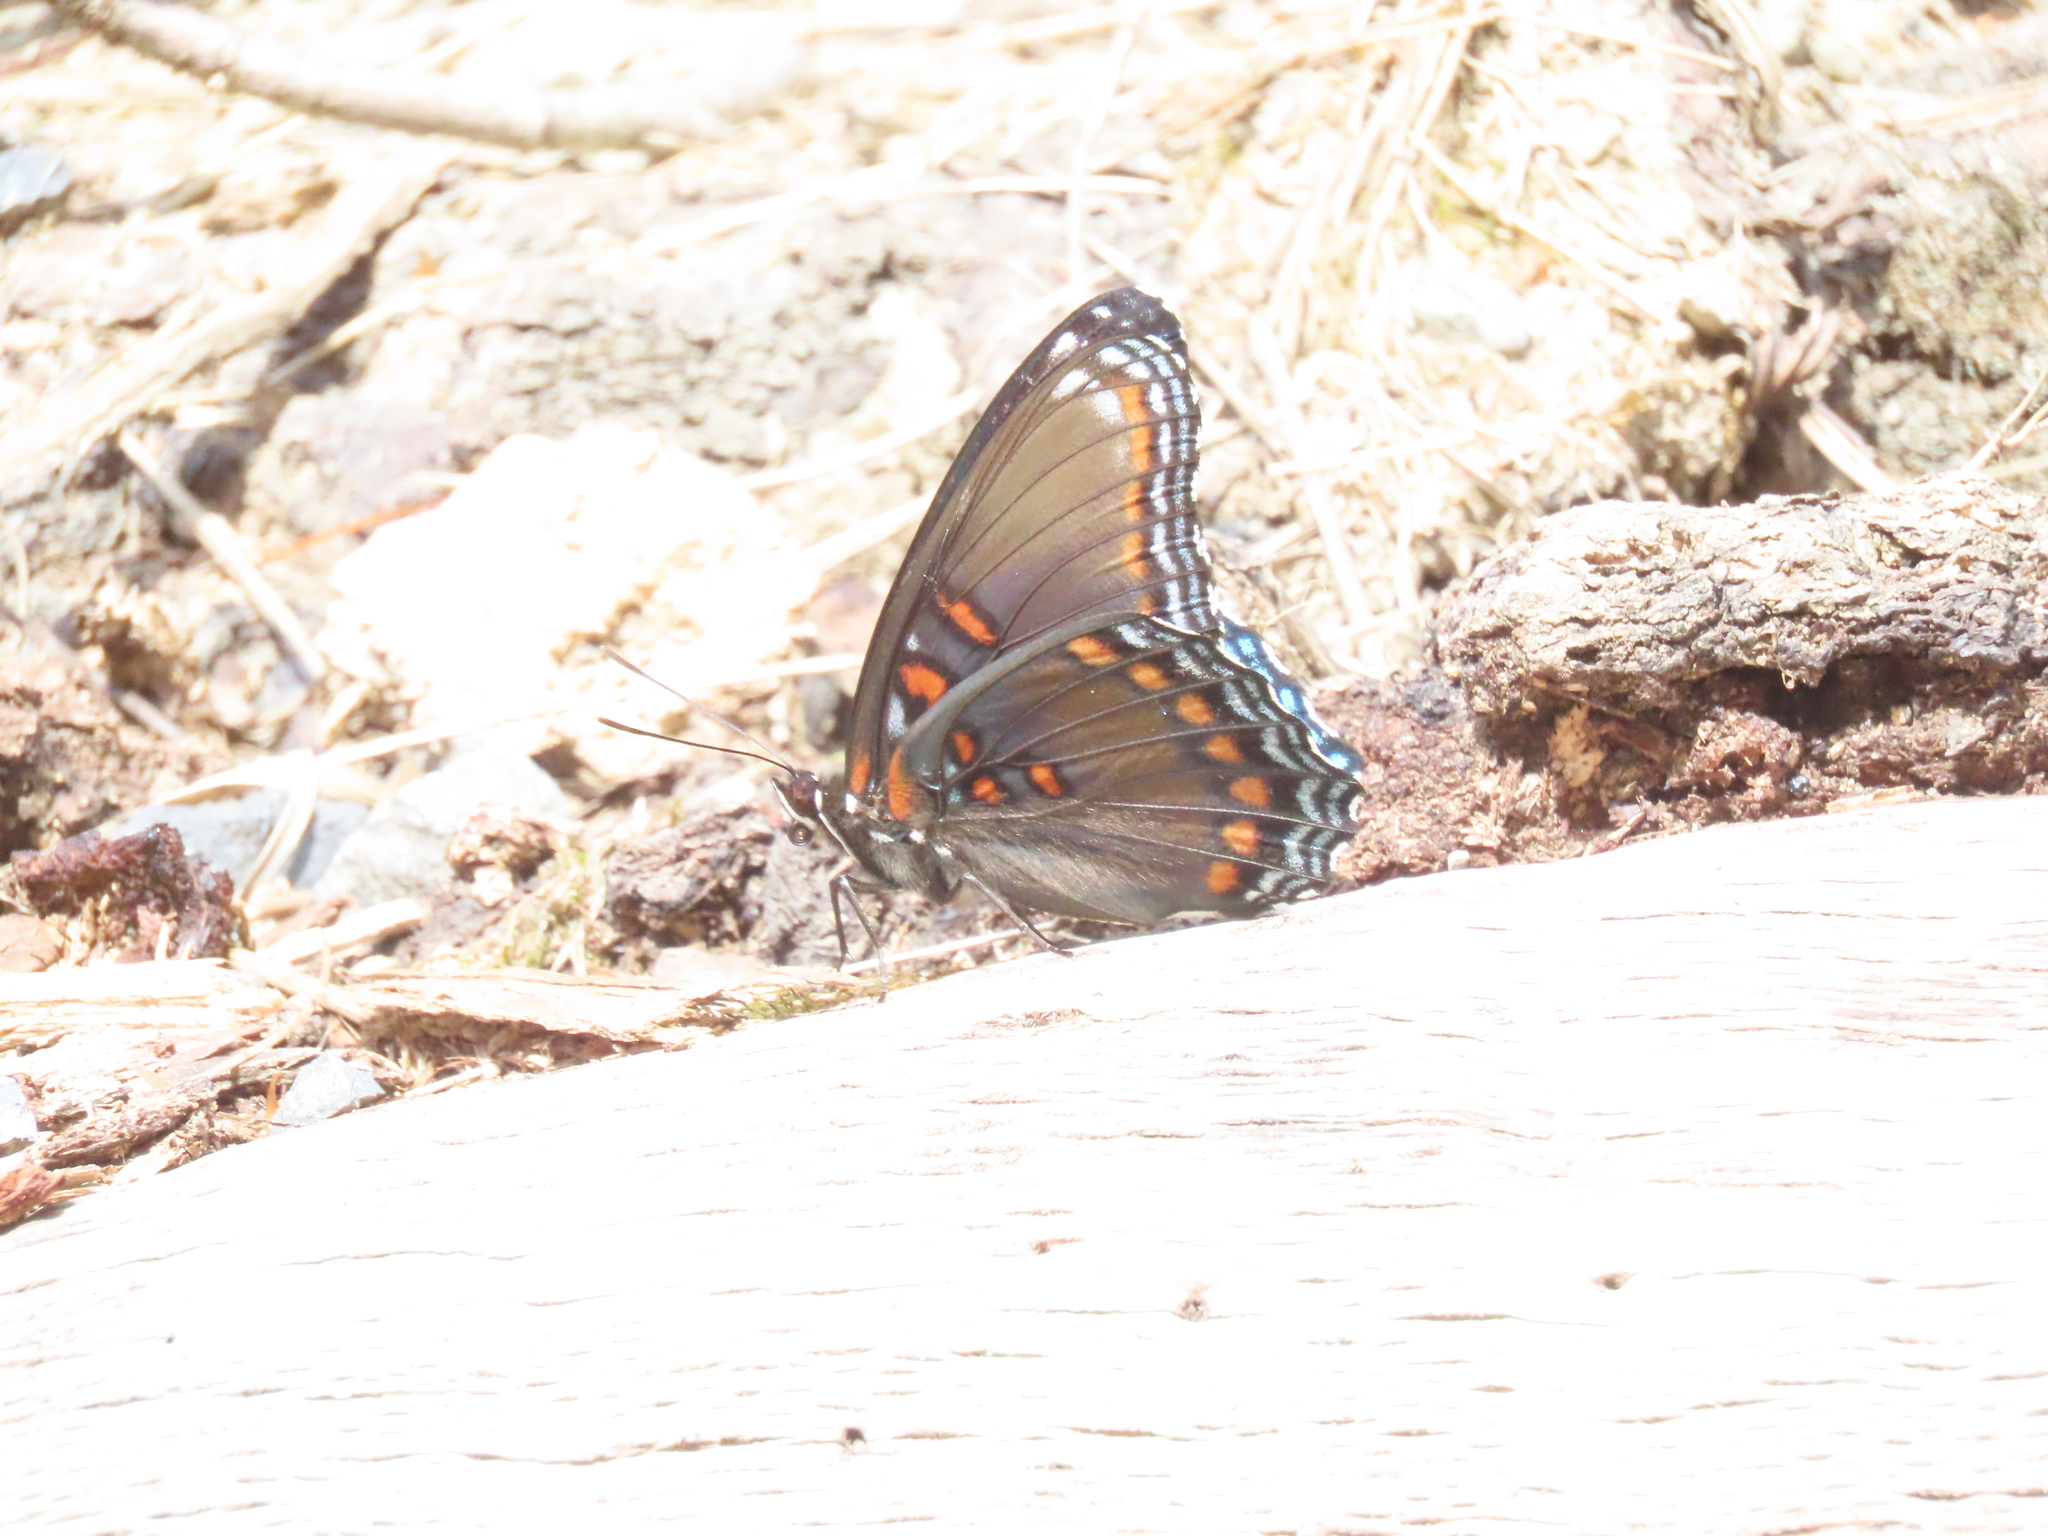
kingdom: Animalia
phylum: Arthropoda
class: Insecta
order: Lepidoptera
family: Nymphalidae
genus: Limenitis
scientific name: Limenitis astyanax
